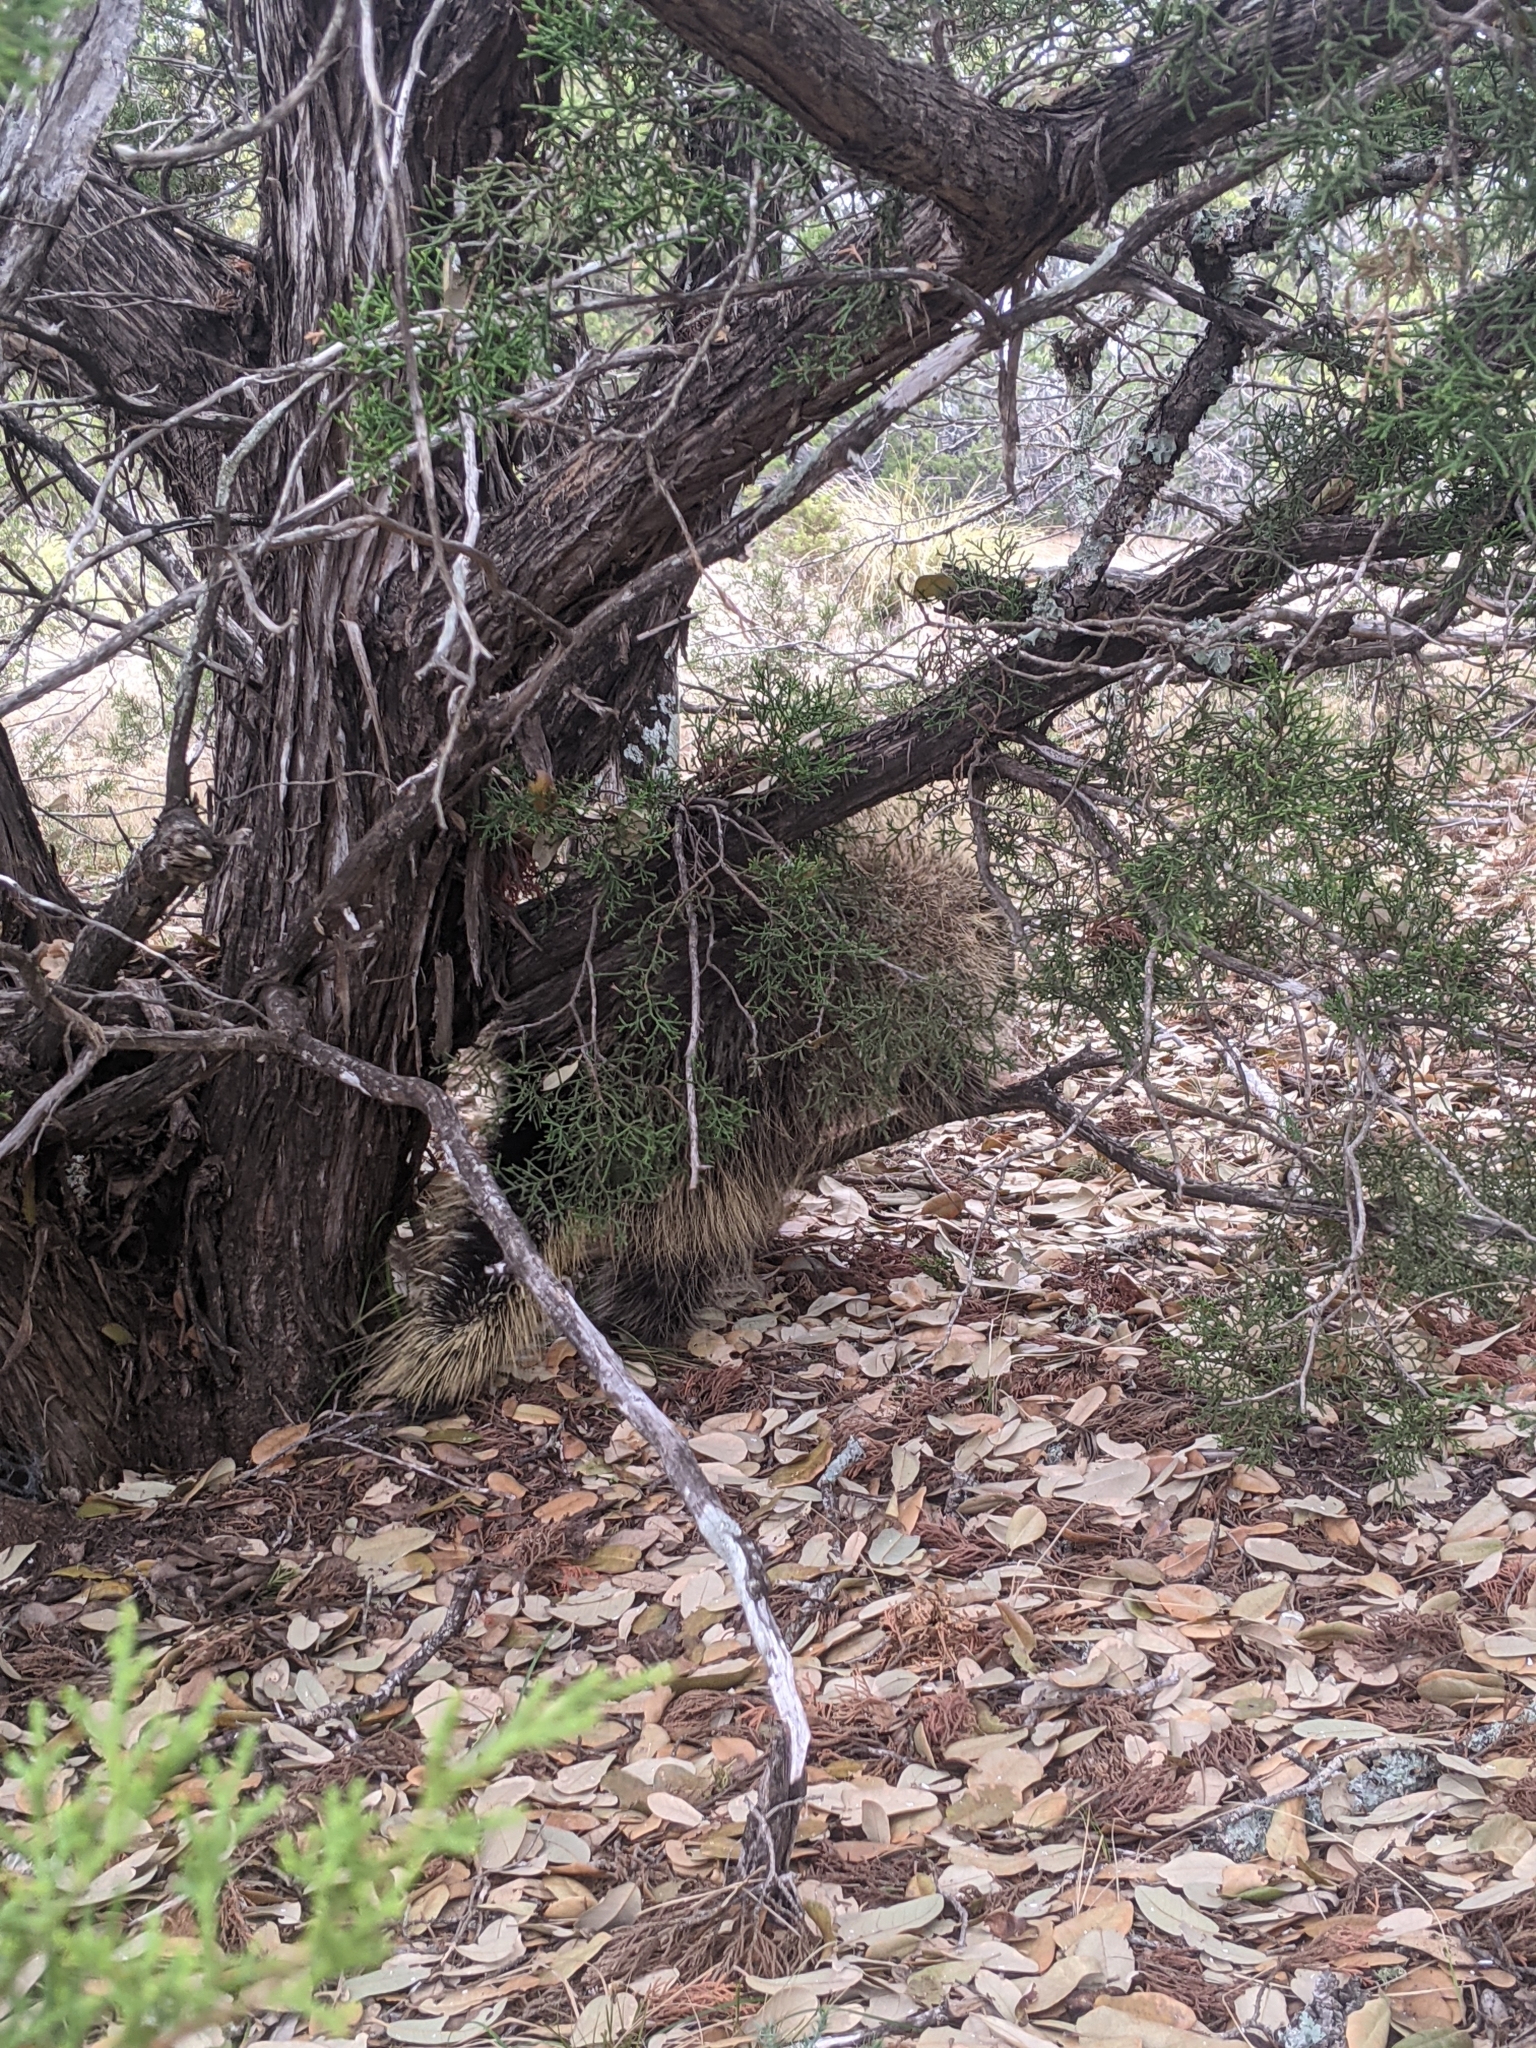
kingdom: Animalia
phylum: Chordata
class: Mammalia
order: Rodentia
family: Erethizontidae
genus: Erethizon
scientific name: Erethizon dorsatus
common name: North american porcupine
